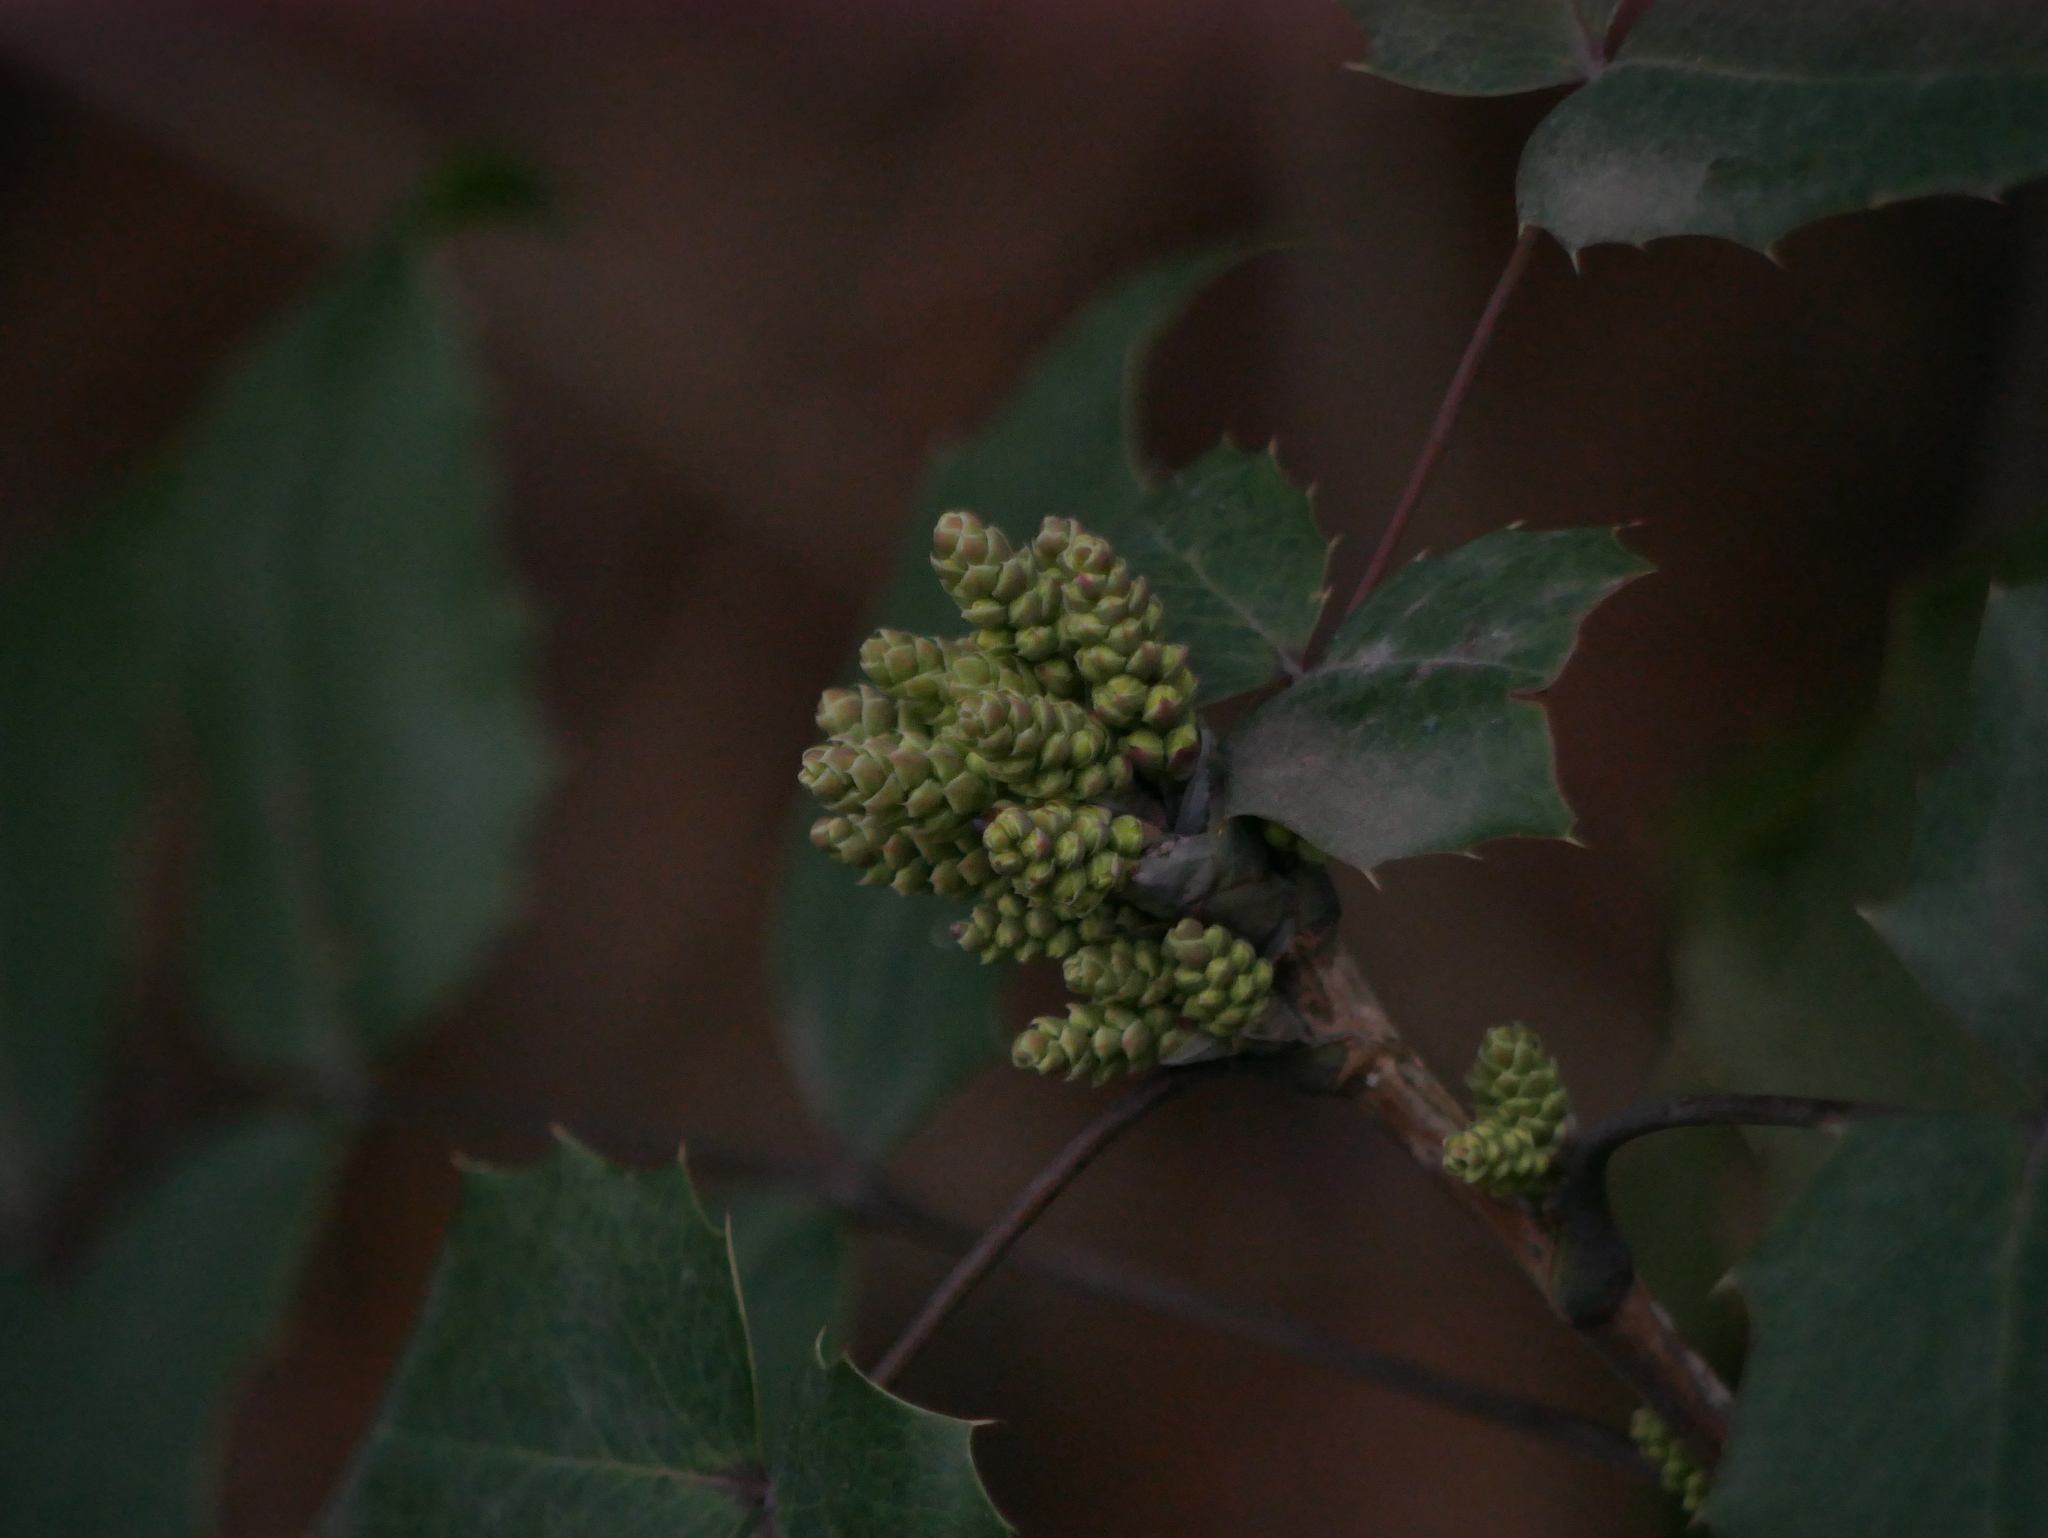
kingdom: Plantae
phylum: Tracheophyta
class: Magnoliopsida
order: Ranunculales
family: Berberidaceae
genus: Mahonia
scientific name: Mahonia aquifolium
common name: Oregon-grape
